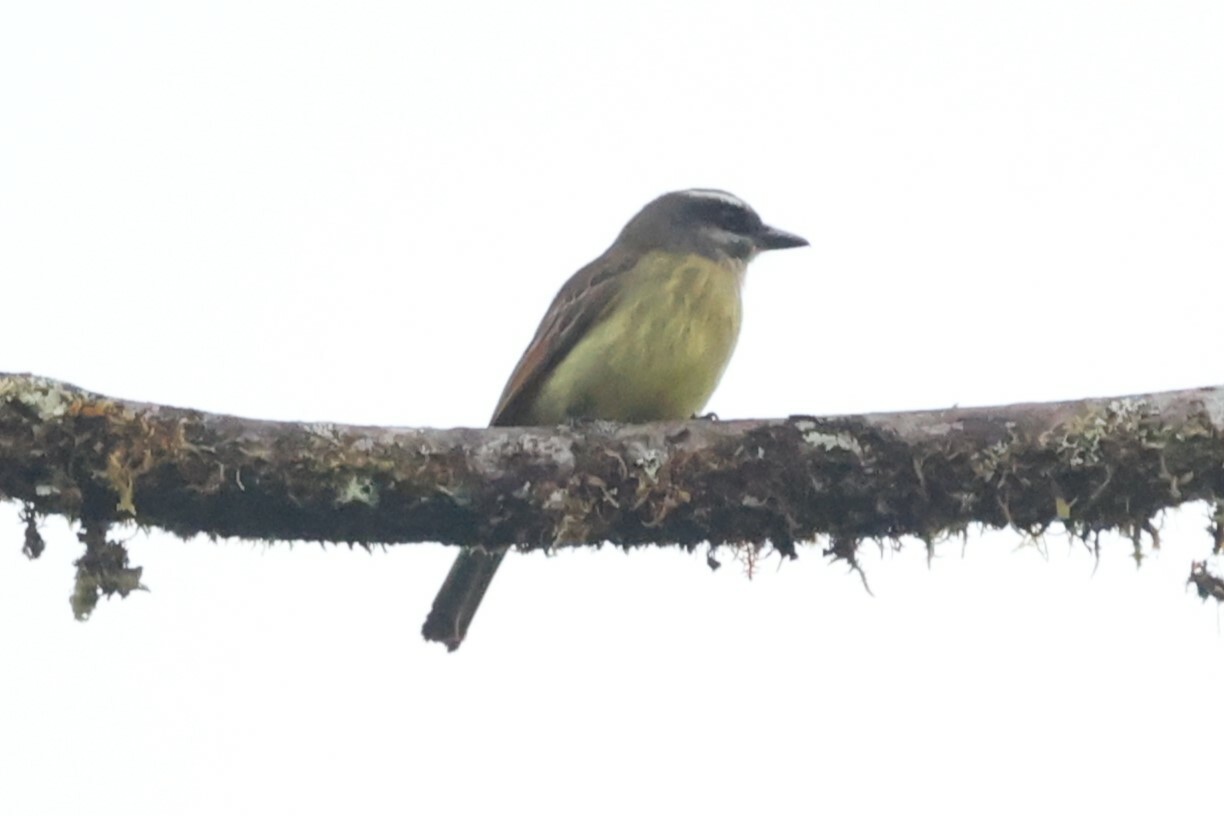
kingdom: Animalia
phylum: Chordata
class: Aves
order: Passeriformes
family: Tyrannidae
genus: Myiodynastes
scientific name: Myiodynastes hemichrysus
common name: Golden-bellied flycatcher
